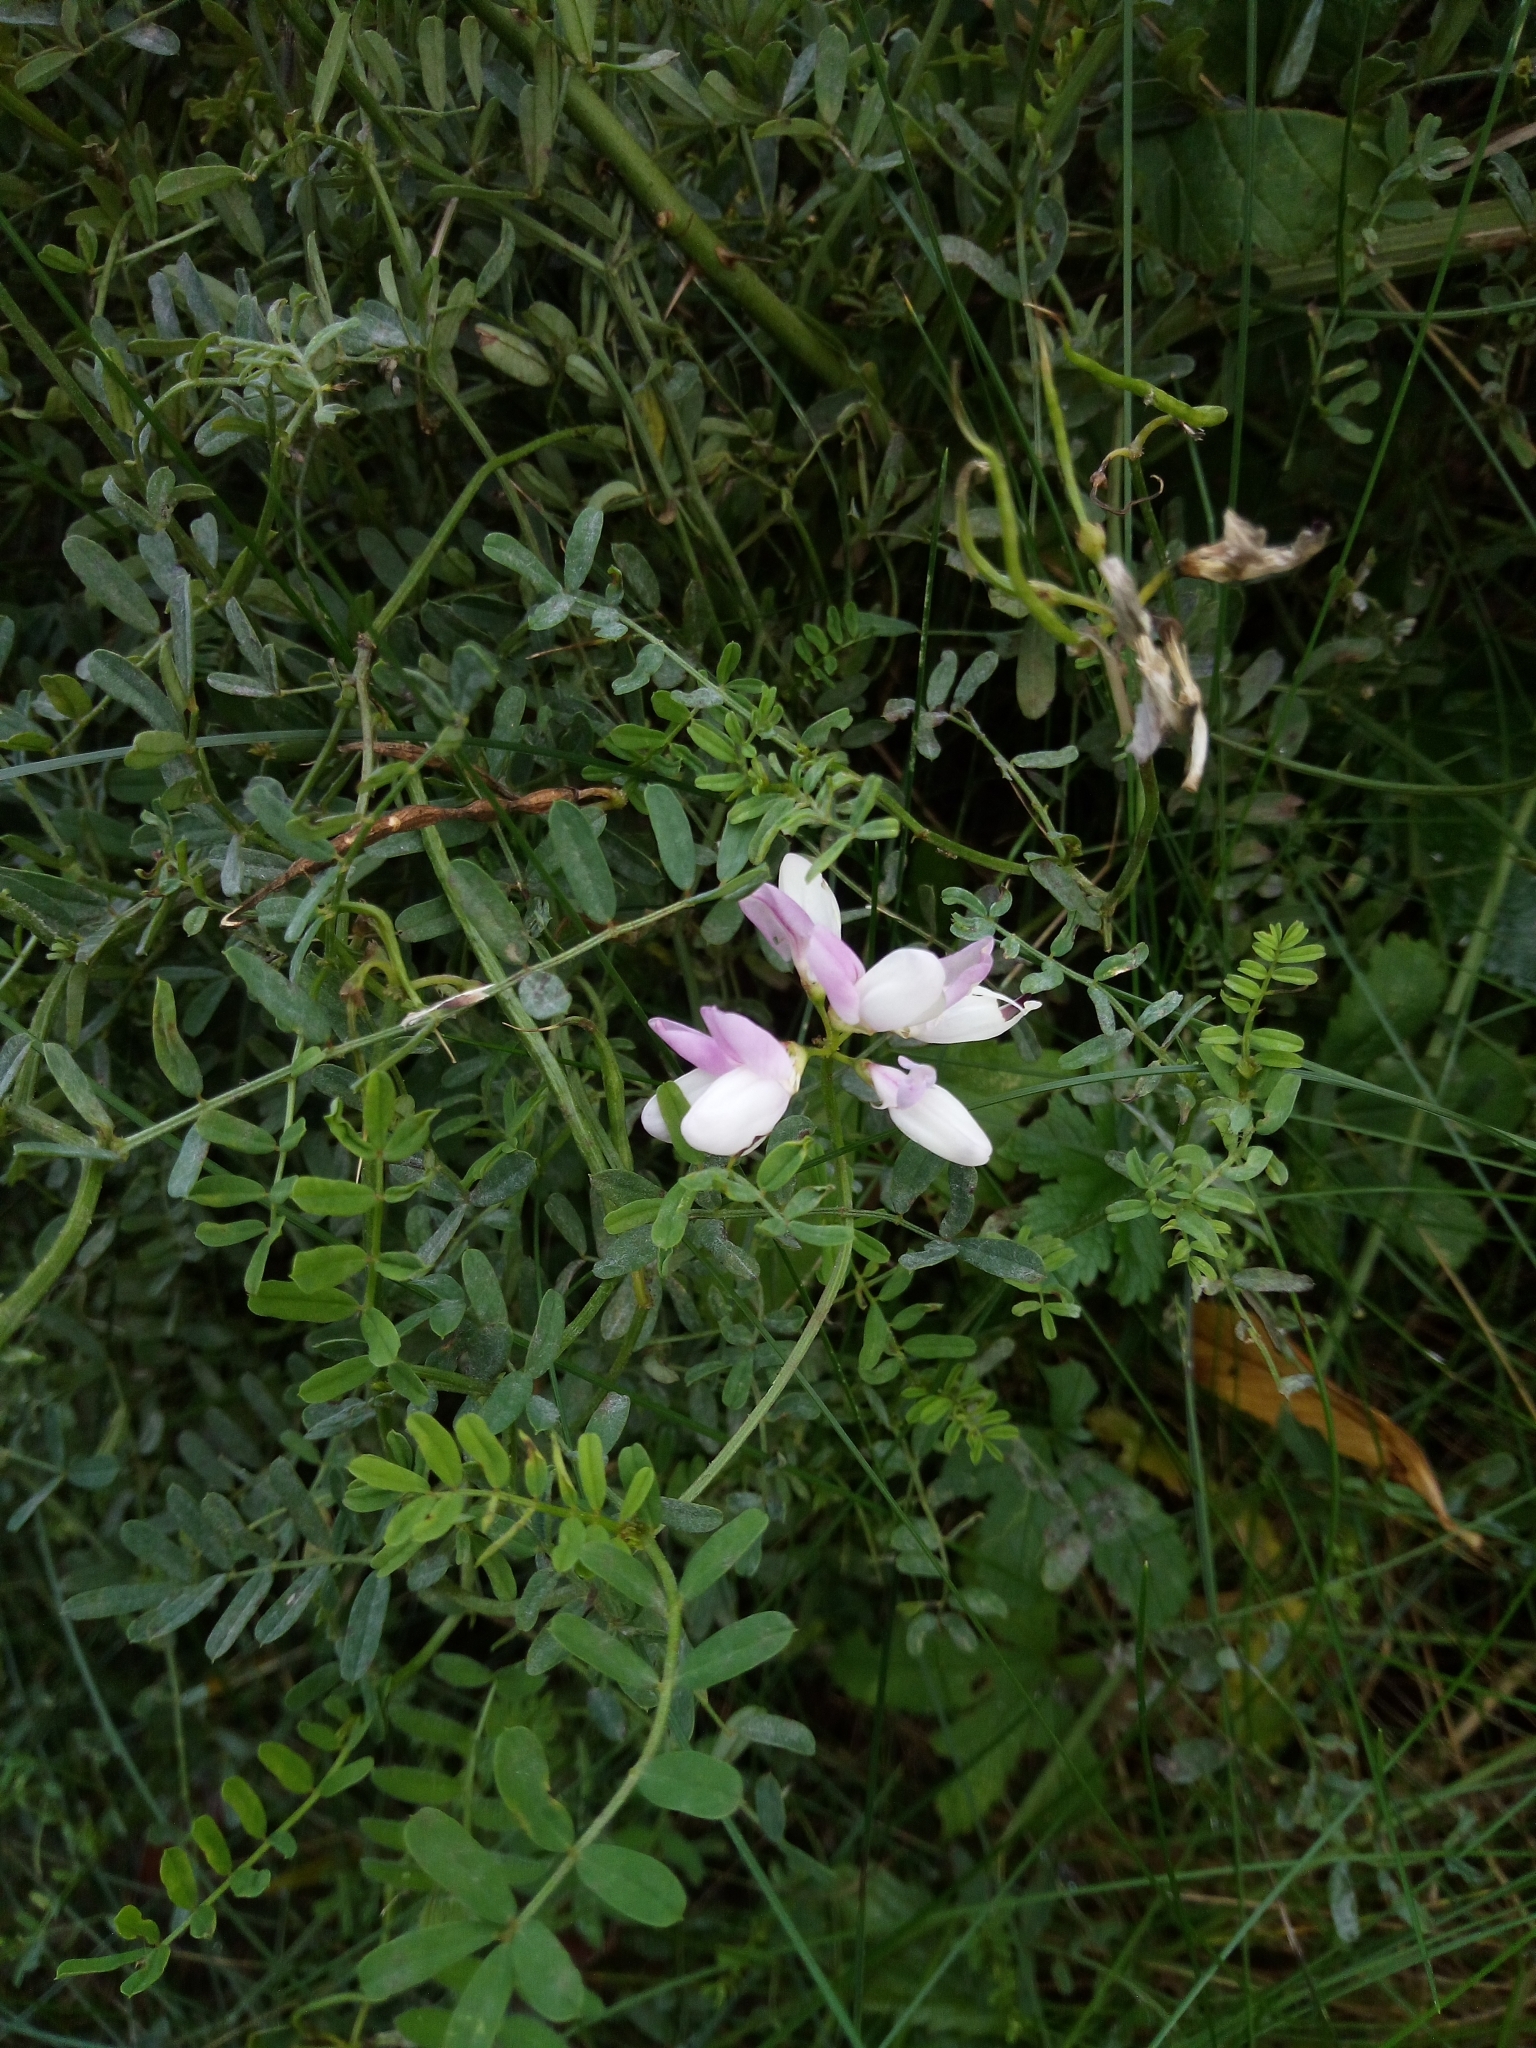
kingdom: Plantae
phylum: Tracheophyta
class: Magnoliopsida
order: Fabales
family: Fabaceae
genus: Coronilla
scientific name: Coronilla varia
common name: Crownvetch
